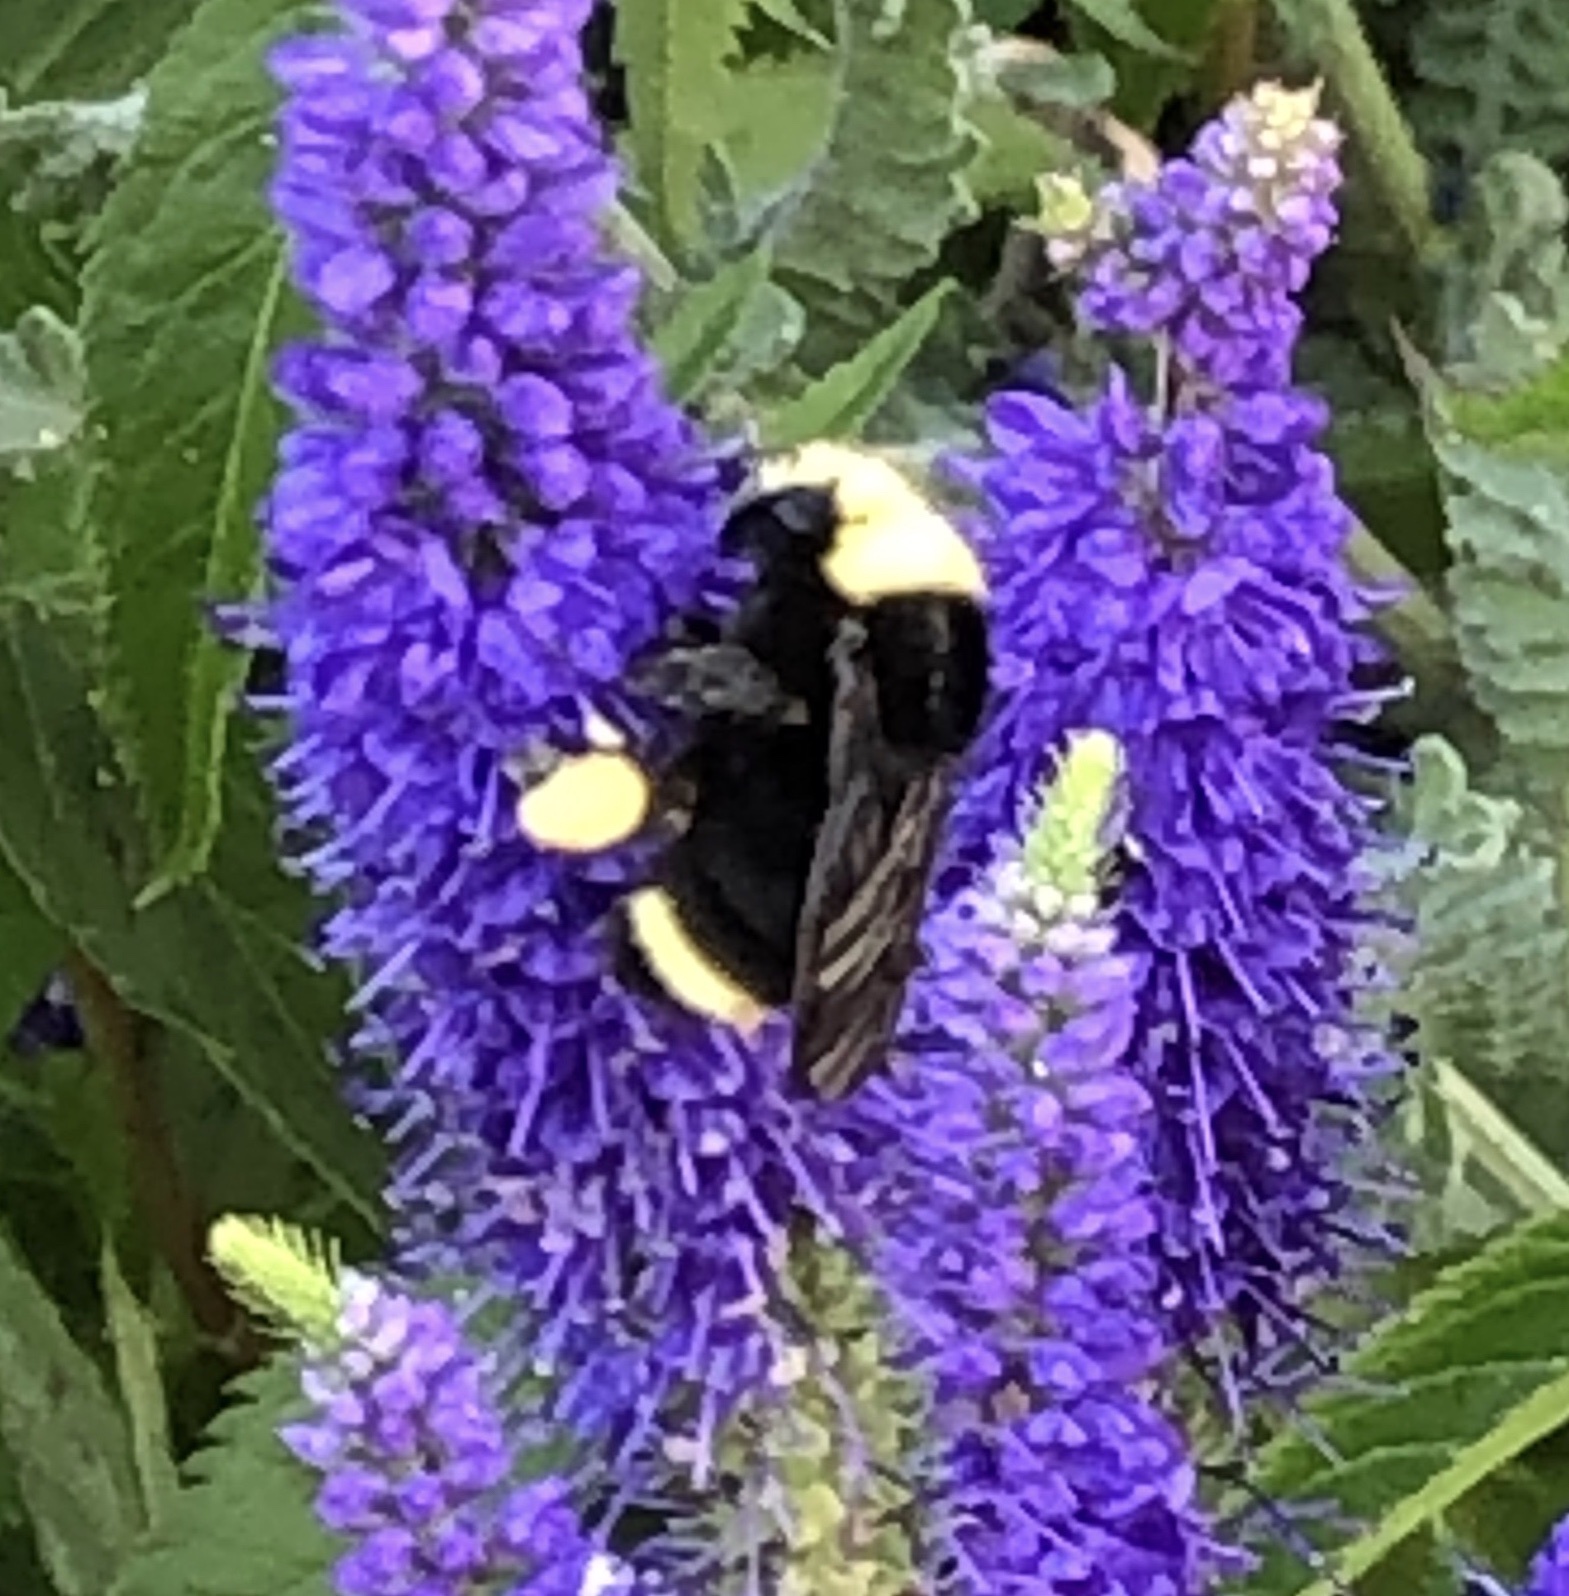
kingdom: Animalia
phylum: Arthropoda
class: Insecta
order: Hymenoptera
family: Apidae
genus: Bombus
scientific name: Bombus vosnesenskii
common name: Vosnesensky bumble bee
